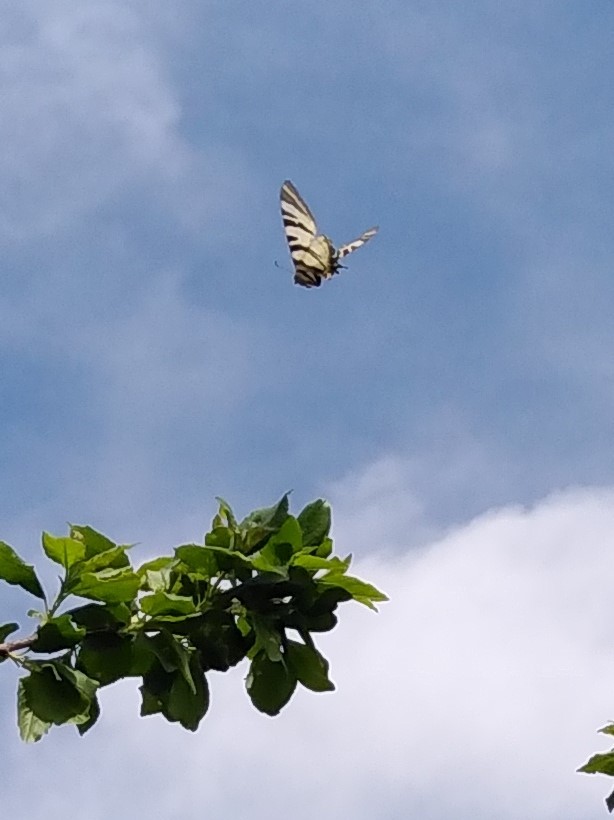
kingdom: Animalia
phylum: Arthropoda
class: Insecta
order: Lepidoptera
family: Papilionidae
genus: Iphiclides
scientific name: Iphiclides podalirius
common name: Scarce swallowtail
